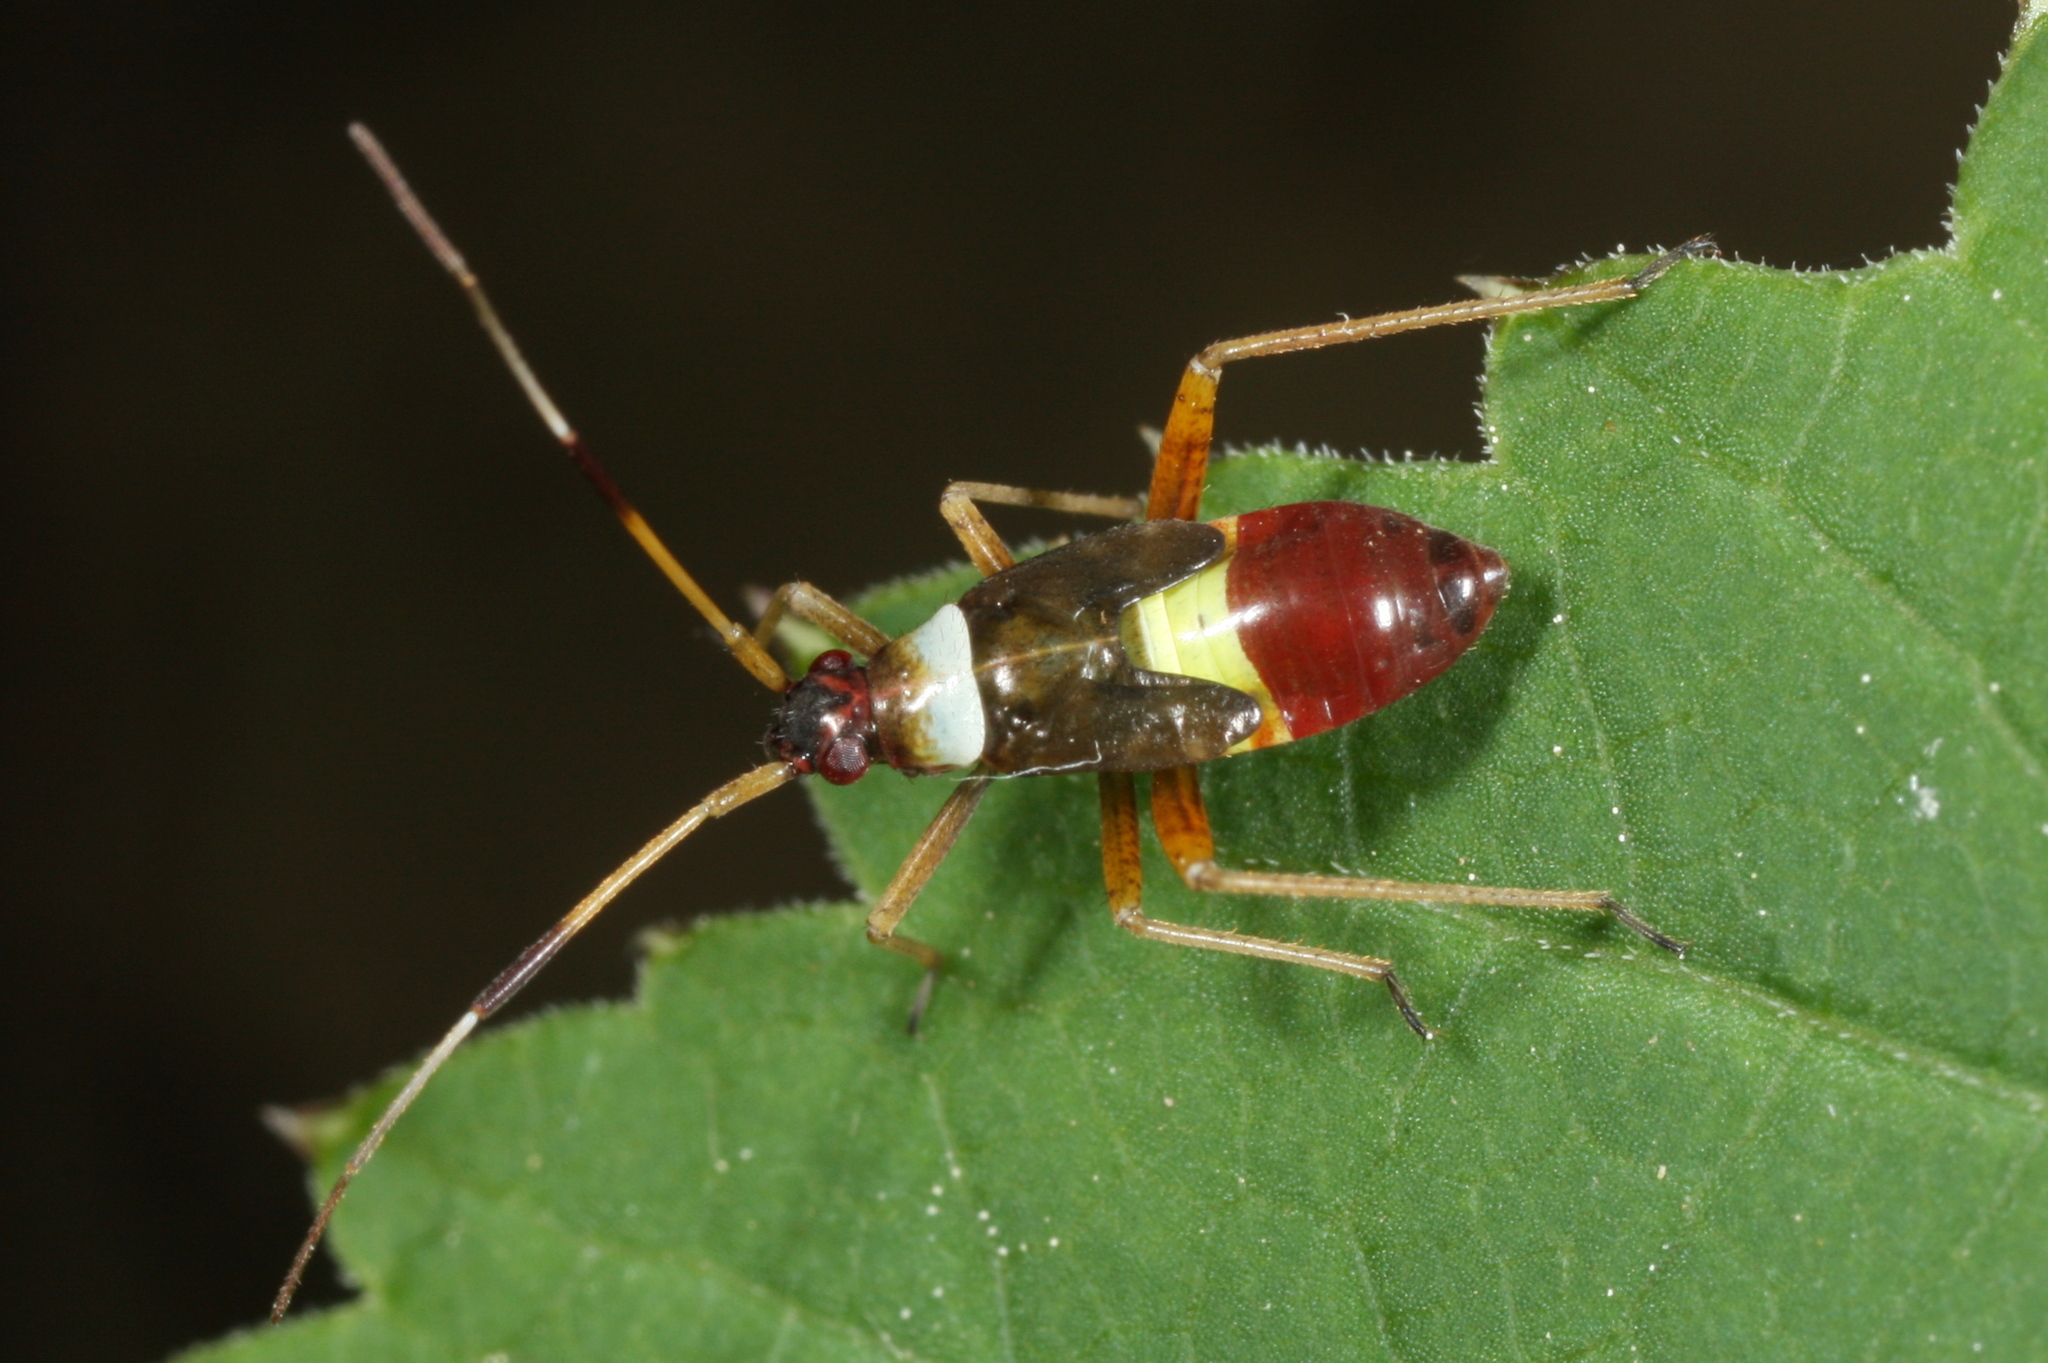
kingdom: Animalia
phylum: Arthropoda
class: Insecta
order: Hemiptera
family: Miridae
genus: Closterotomus
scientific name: Closterotomus biclavatus
